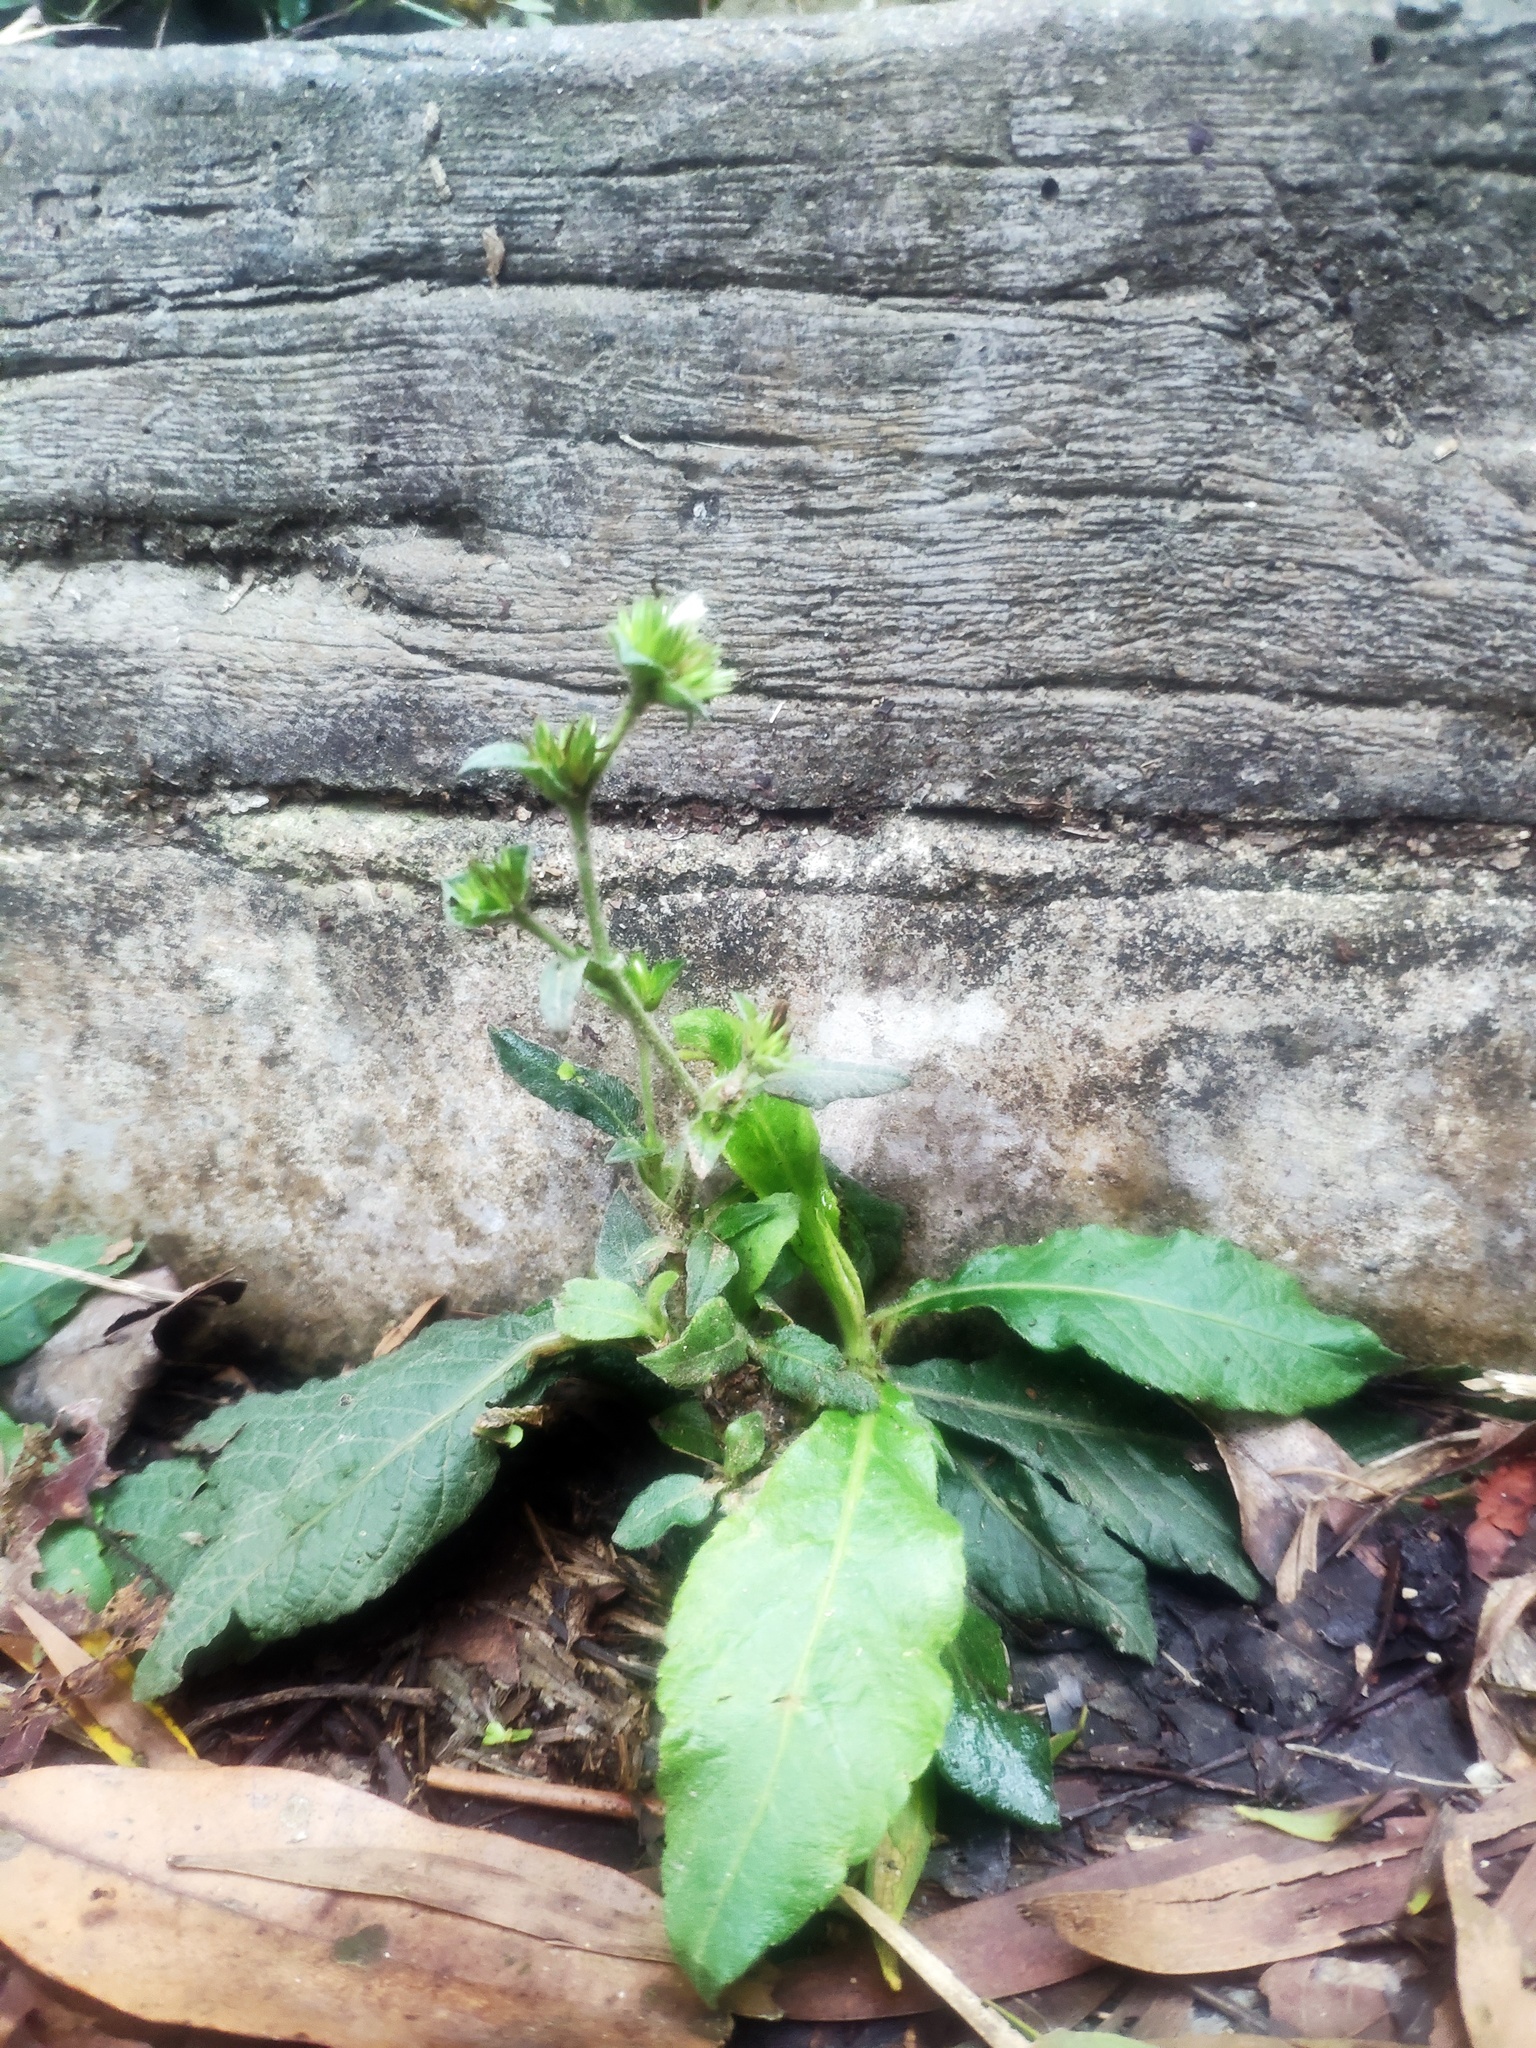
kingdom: Plantae
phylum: Tracheophyta
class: Magnoliopsida
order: Asterales
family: Asteraceae
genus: Elephantopus
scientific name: Elephantopus mollis
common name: Soft elephantsfoot
